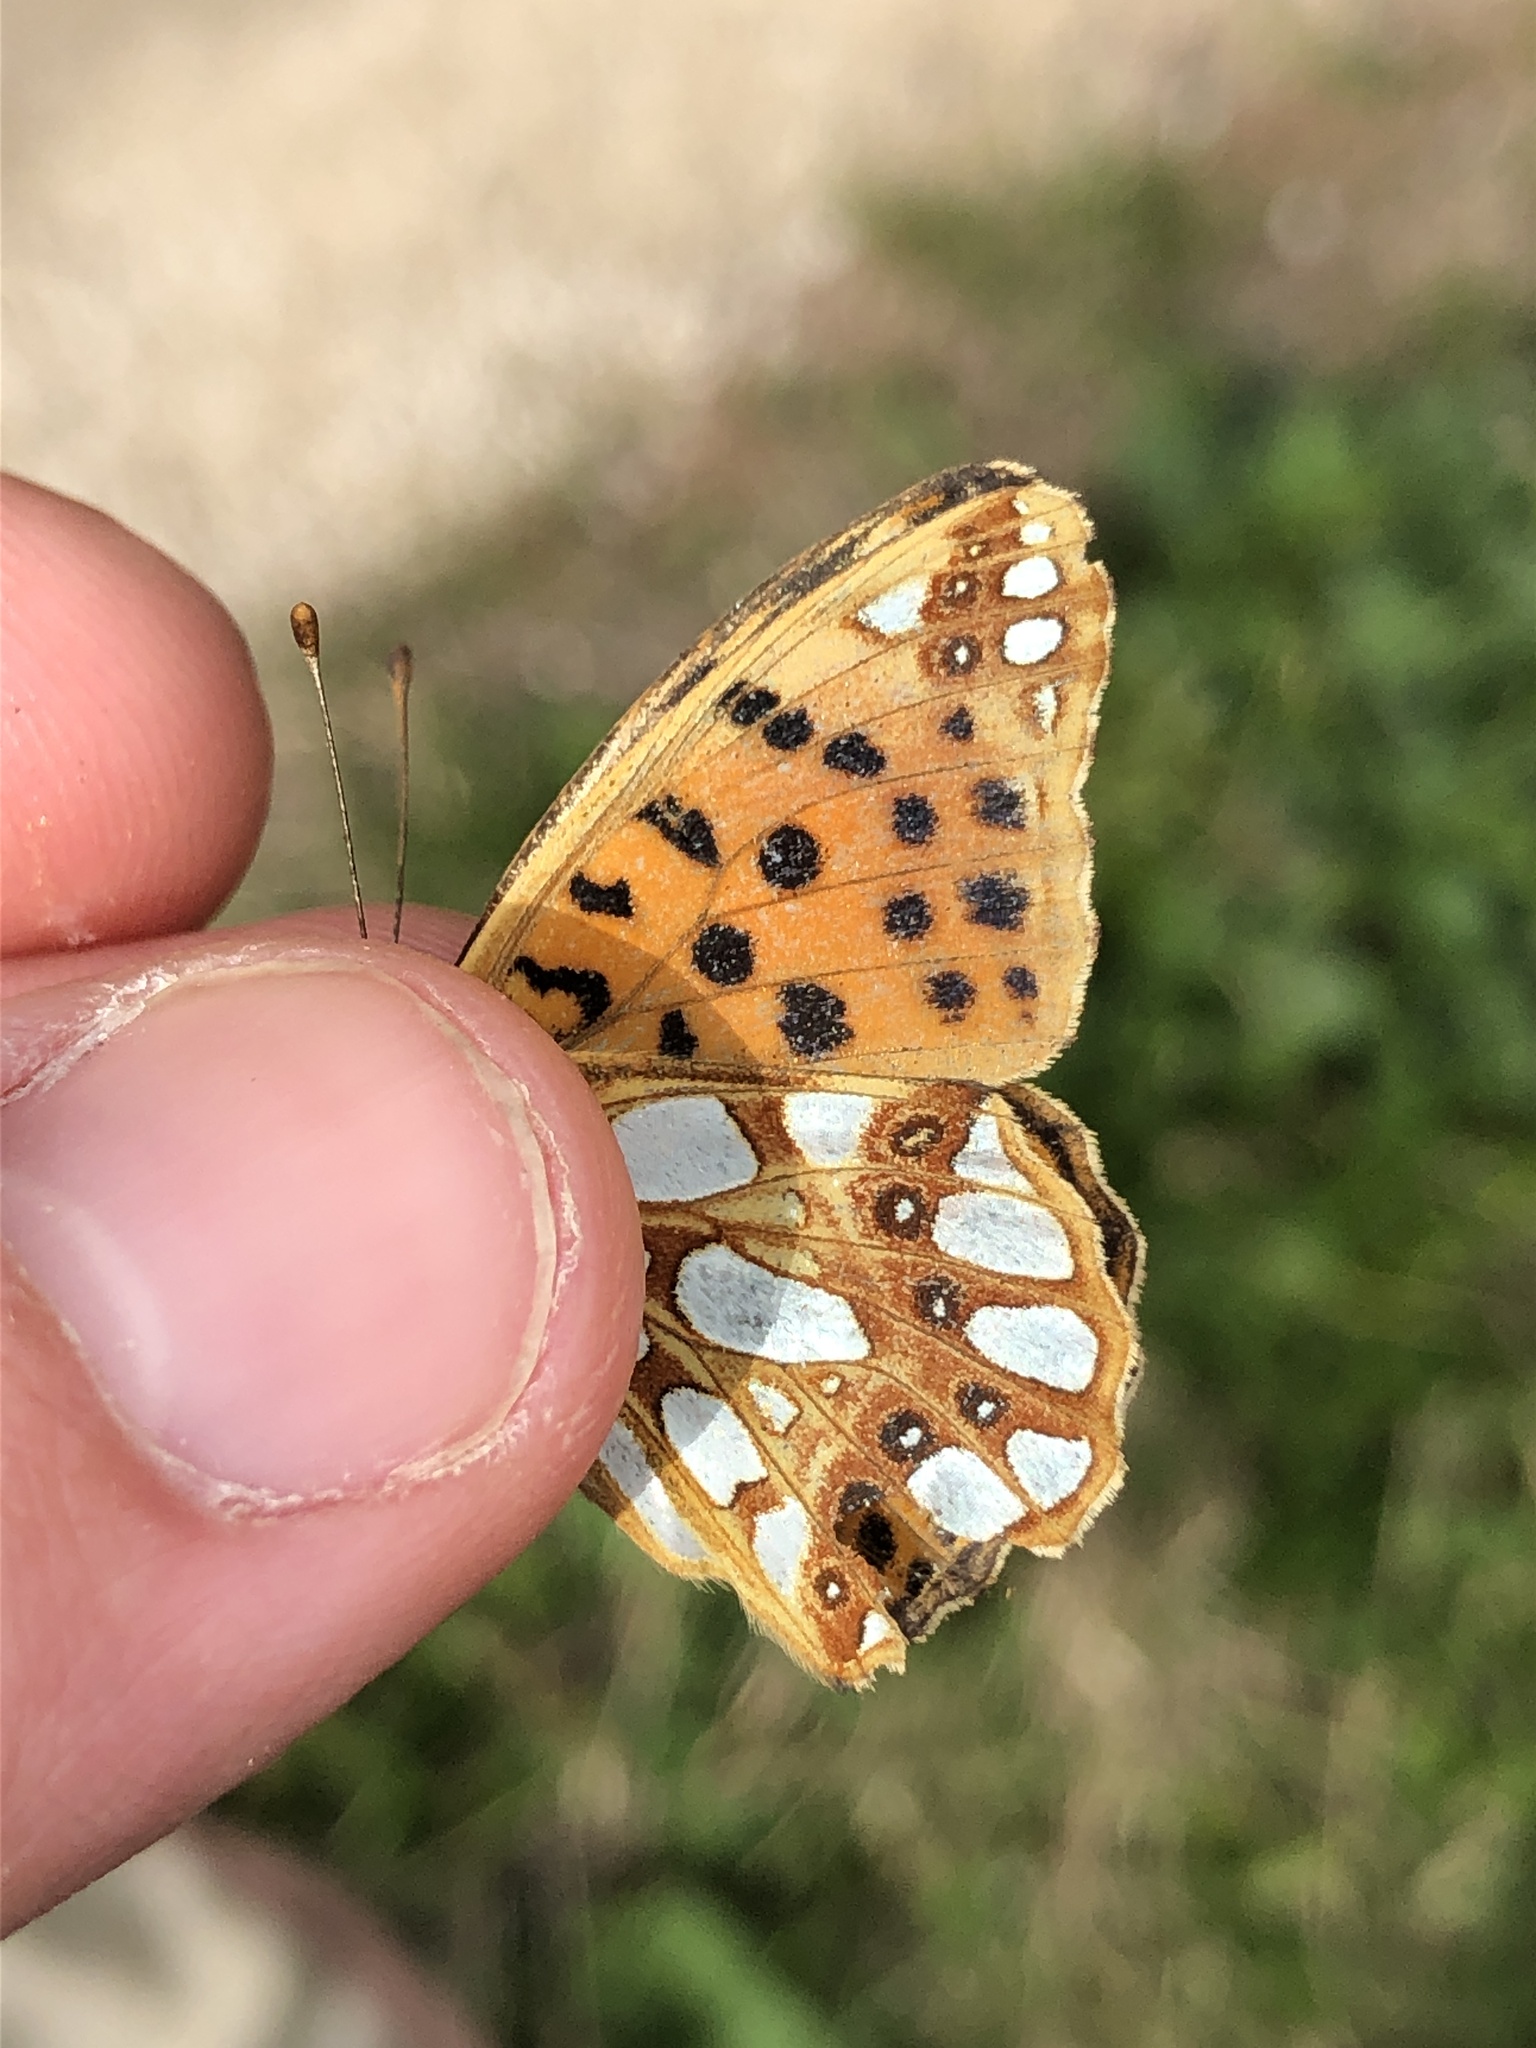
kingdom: Animalia
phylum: Arthropoda
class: Insecta
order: Lepidoptera
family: Nymphalidae
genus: Issoria
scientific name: Issoria lathonia
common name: Queen of spain fritillary
